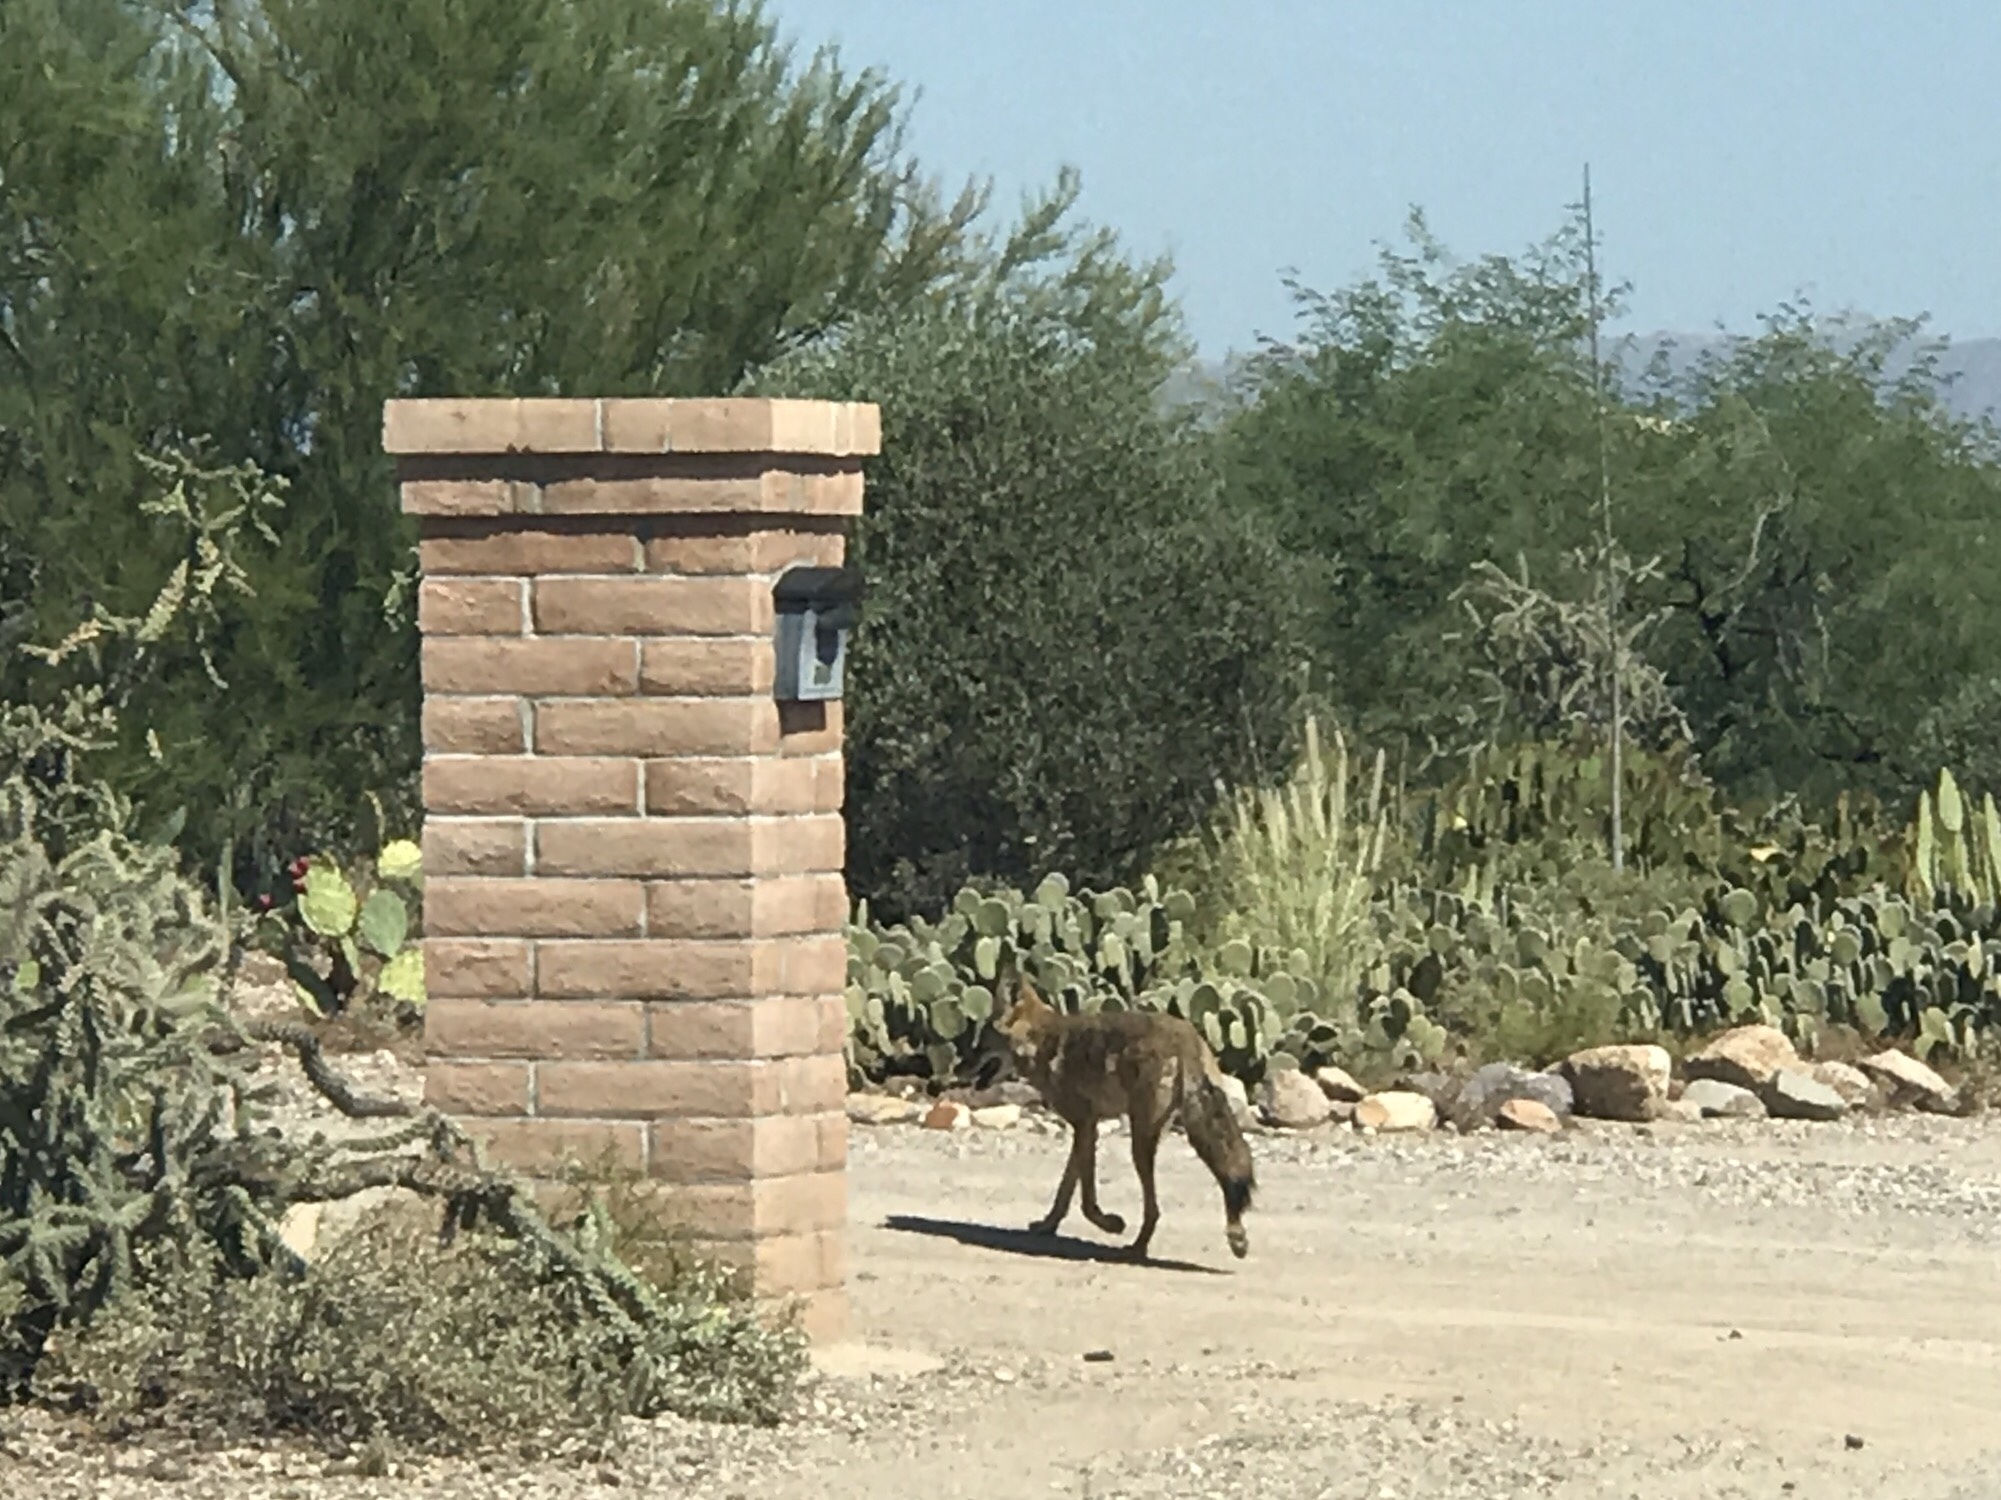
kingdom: Animalia
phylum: Chordata
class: Mammalia
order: Carnivora
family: Canidae
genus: Canis
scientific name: Canis latrans
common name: Coyote
